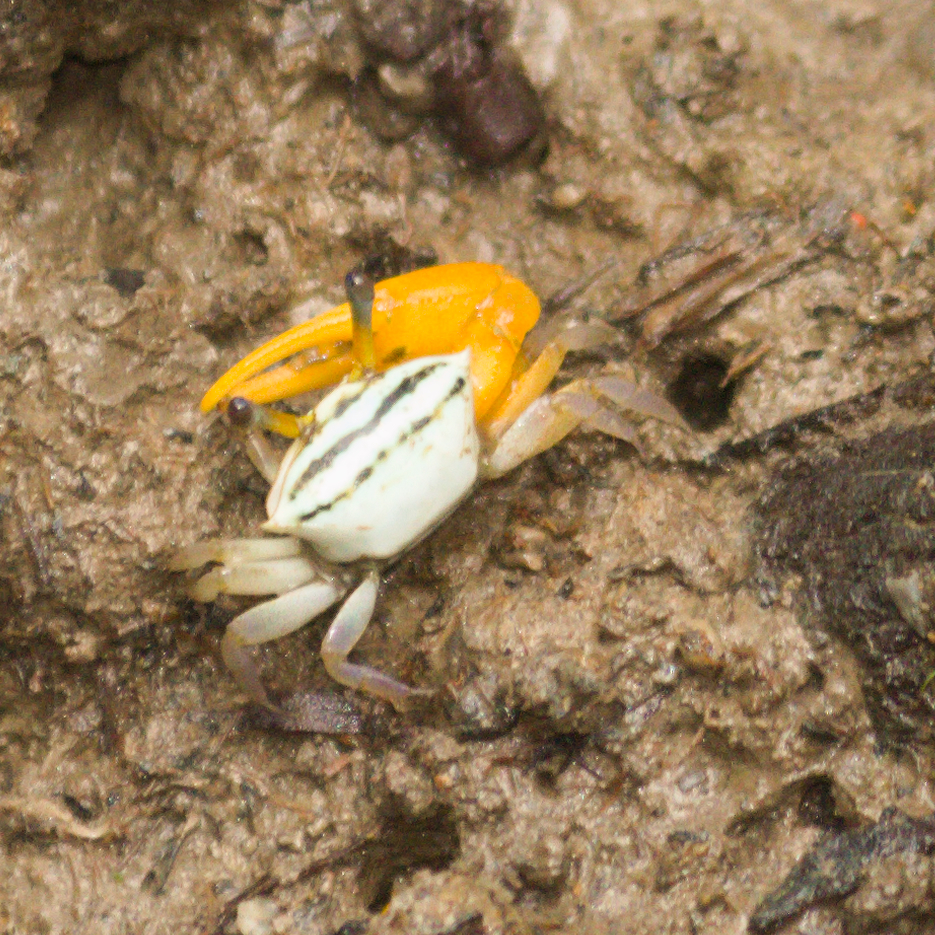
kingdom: Animalia
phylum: Arthropoda
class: Malacostraca
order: Decapoda
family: Ocypodidae
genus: Austruca
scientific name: Austruca bengali
